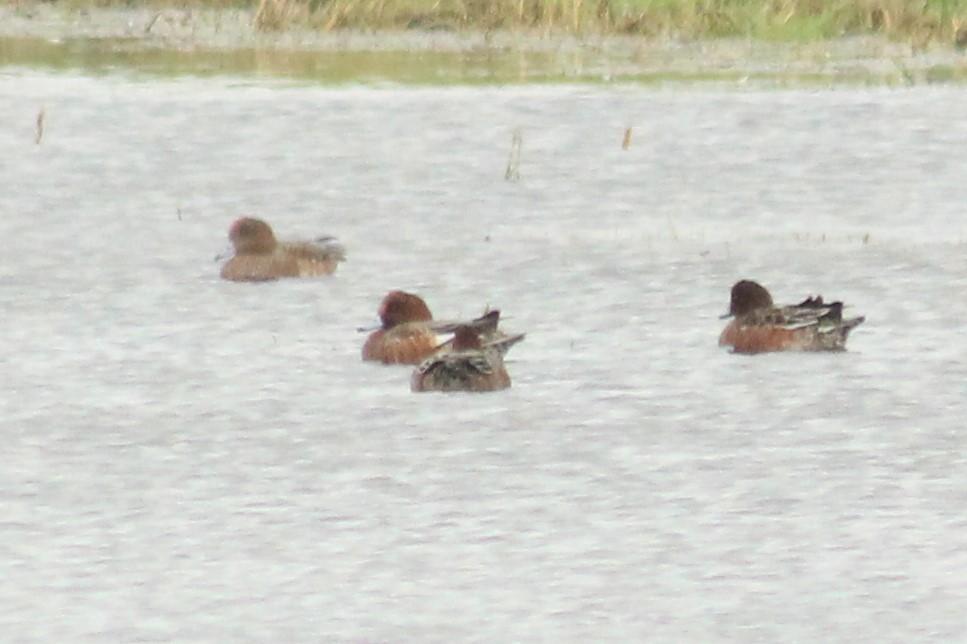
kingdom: Animalia
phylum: Chordata
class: Aves
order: Anseriformes
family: Anatidae
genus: Mareca
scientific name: Mareca penelope
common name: Eurasian wigeon
